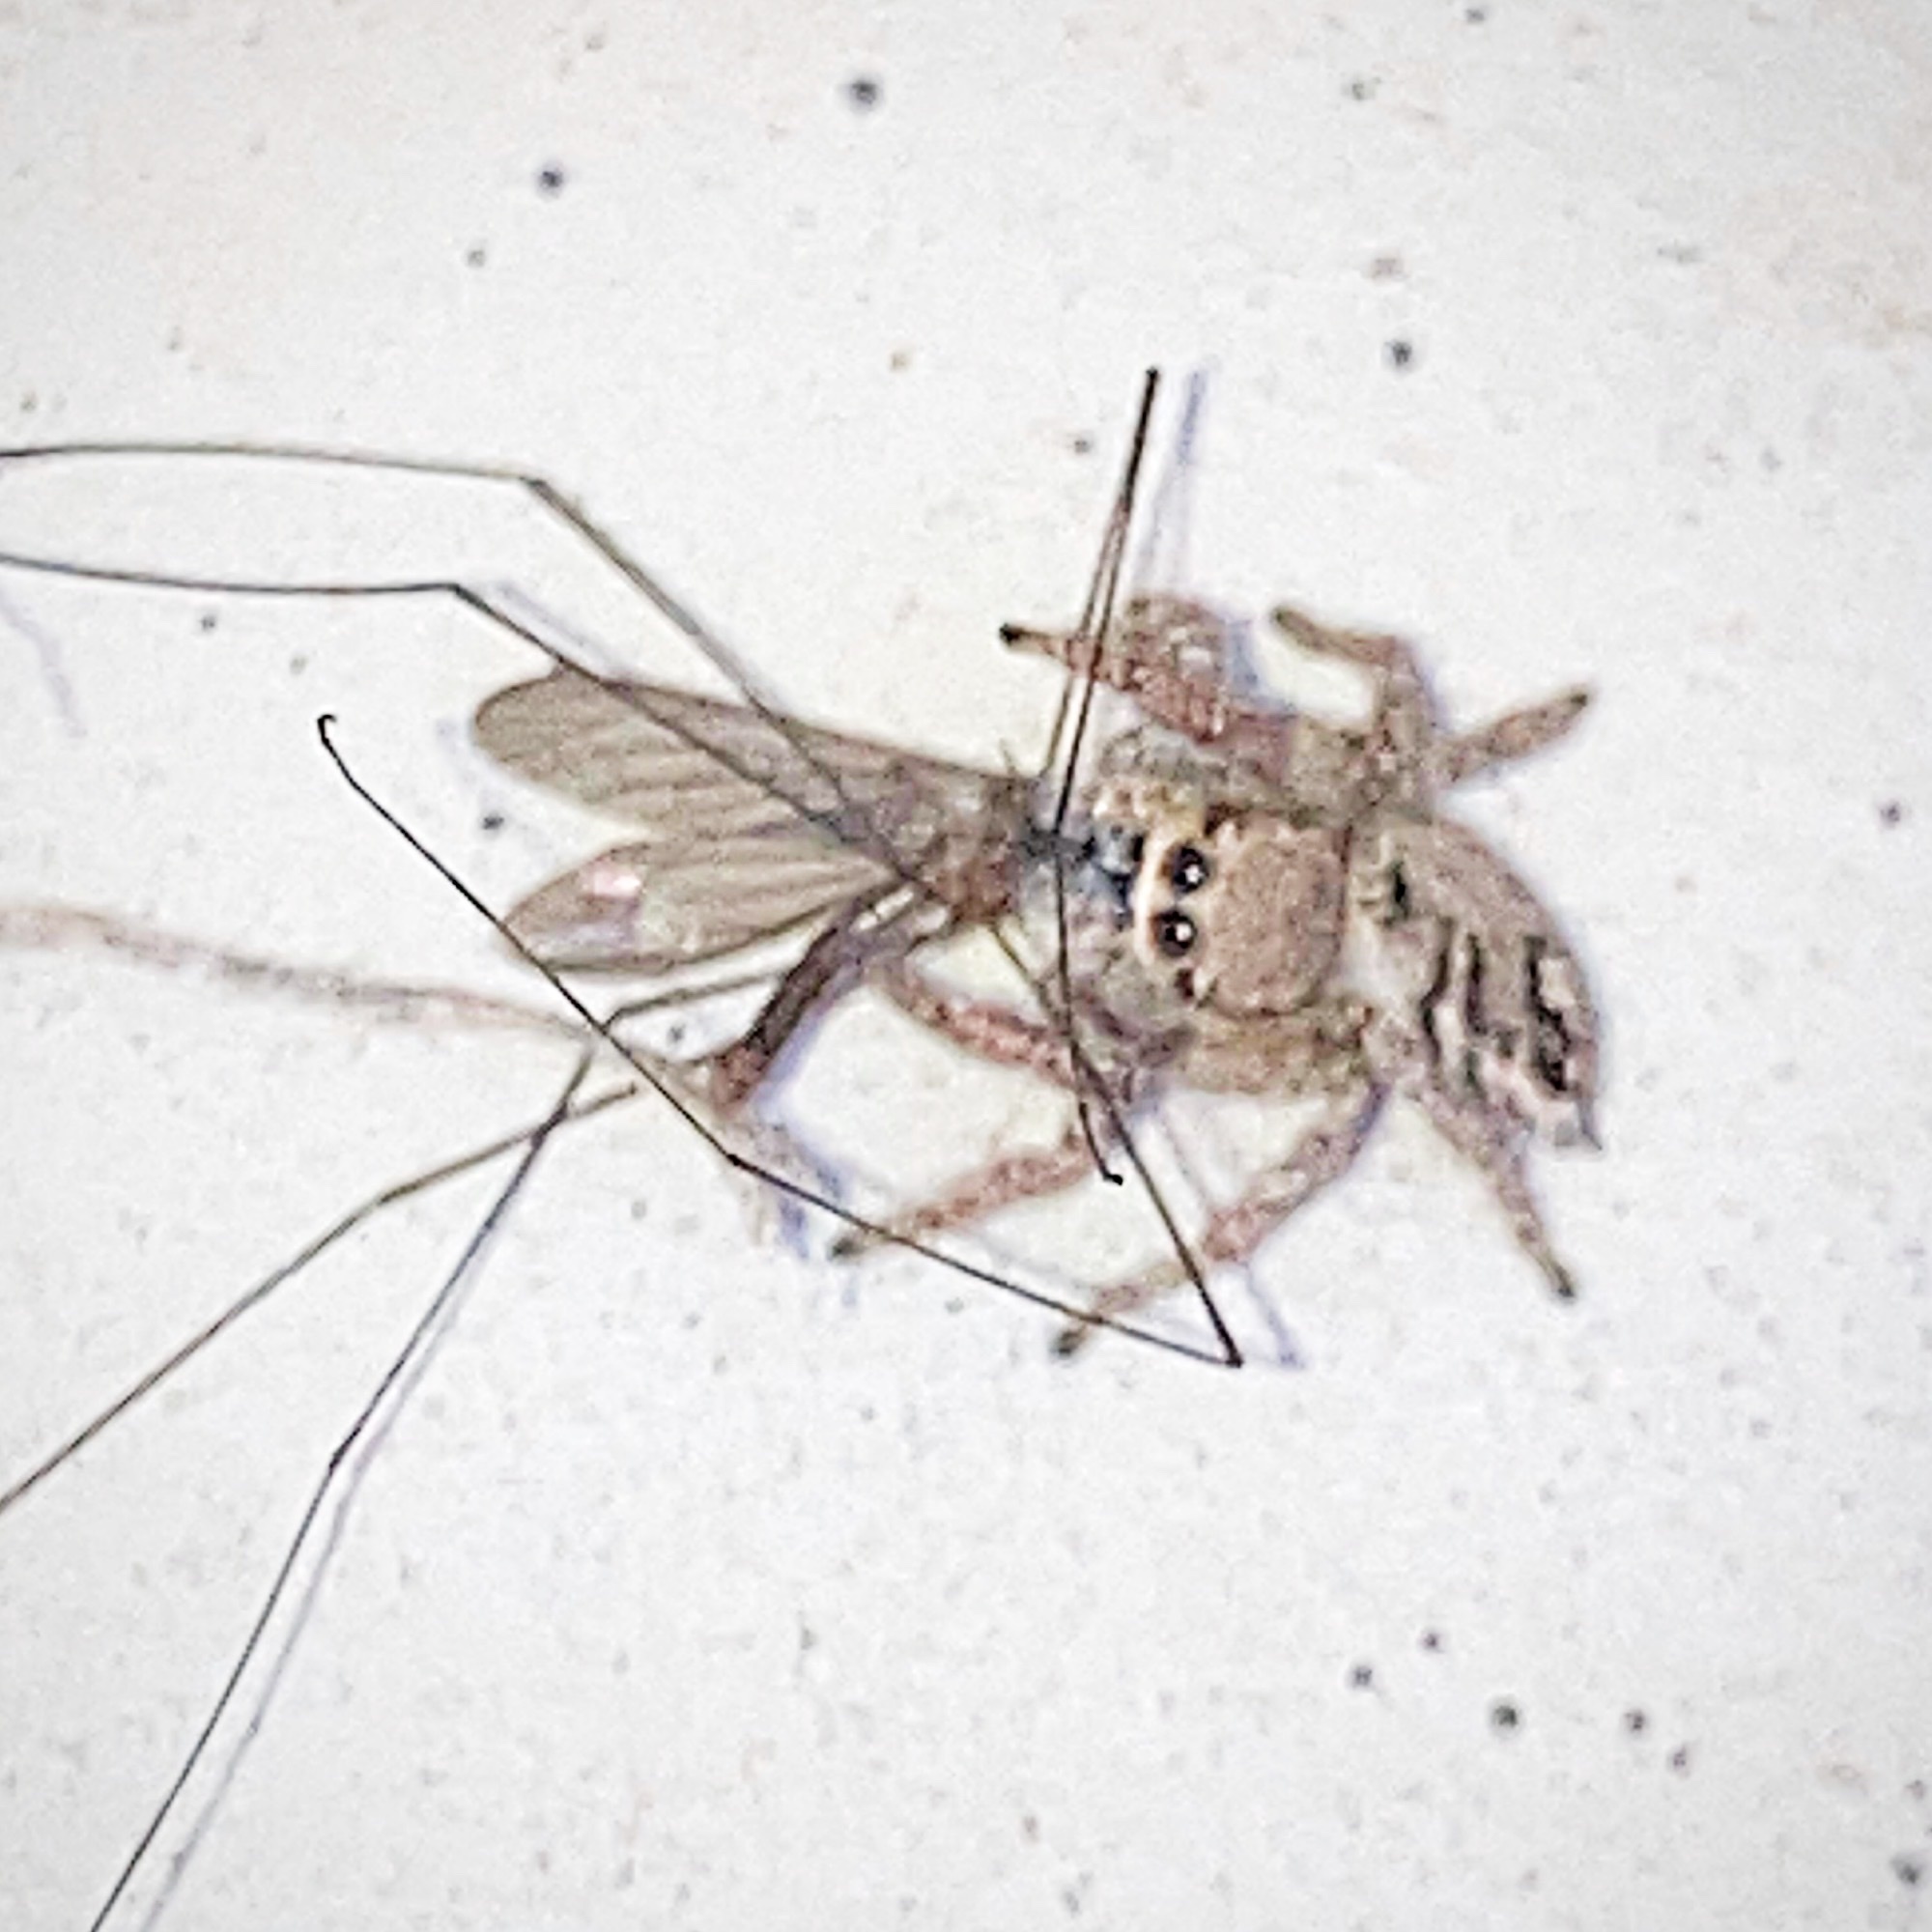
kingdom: Animalia
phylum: Arthropoda
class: Arachnida
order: Araneae
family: Salticidae
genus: Habronattus
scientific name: Habronattus coecatus
